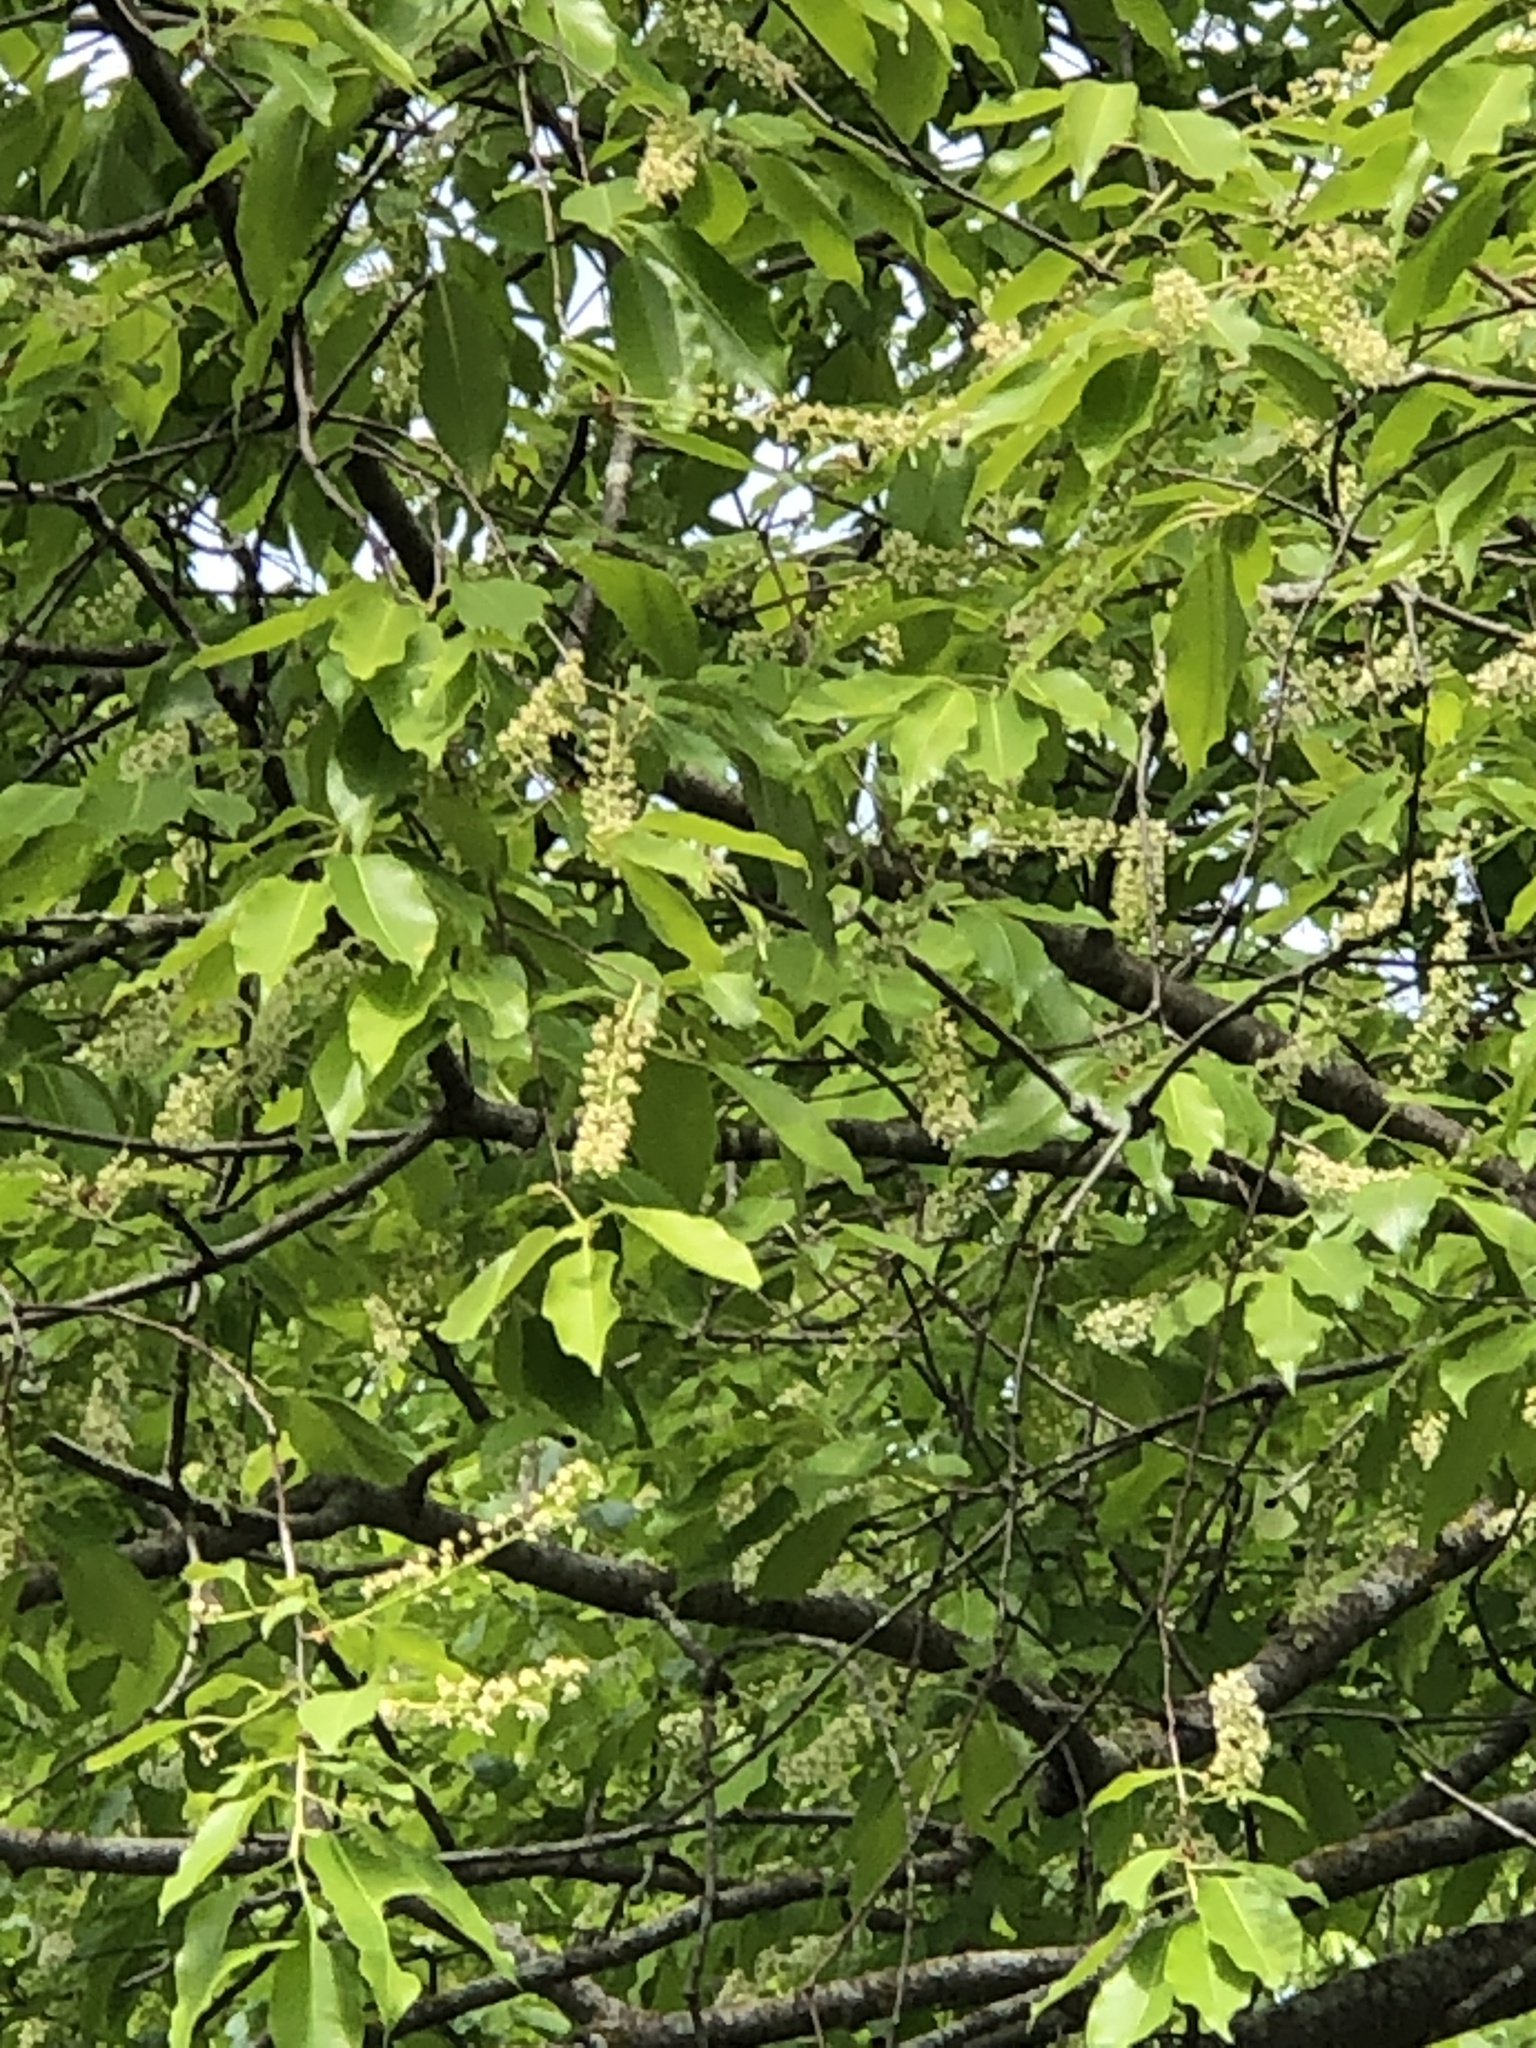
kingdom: Plantae
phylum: Tracheophyta
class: Magnoliopsida
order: Rosales
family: Rosaceae
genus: Prunus
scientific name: Prunus serotina
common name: Black cherry
